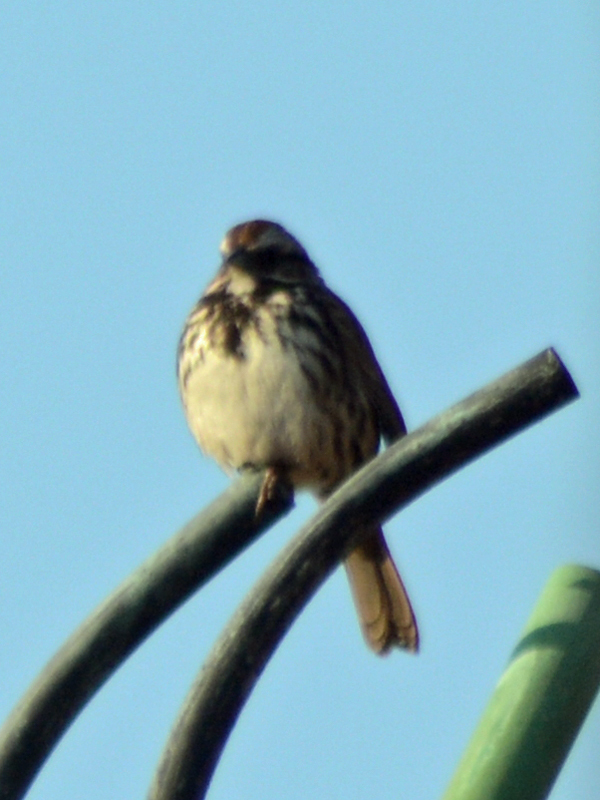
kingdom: Animalia
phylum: Chordata
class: Aves
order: Passeriformes
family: Passerellidae
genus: Melospiza
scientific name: Melospiza melodia
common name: Song sparrow
